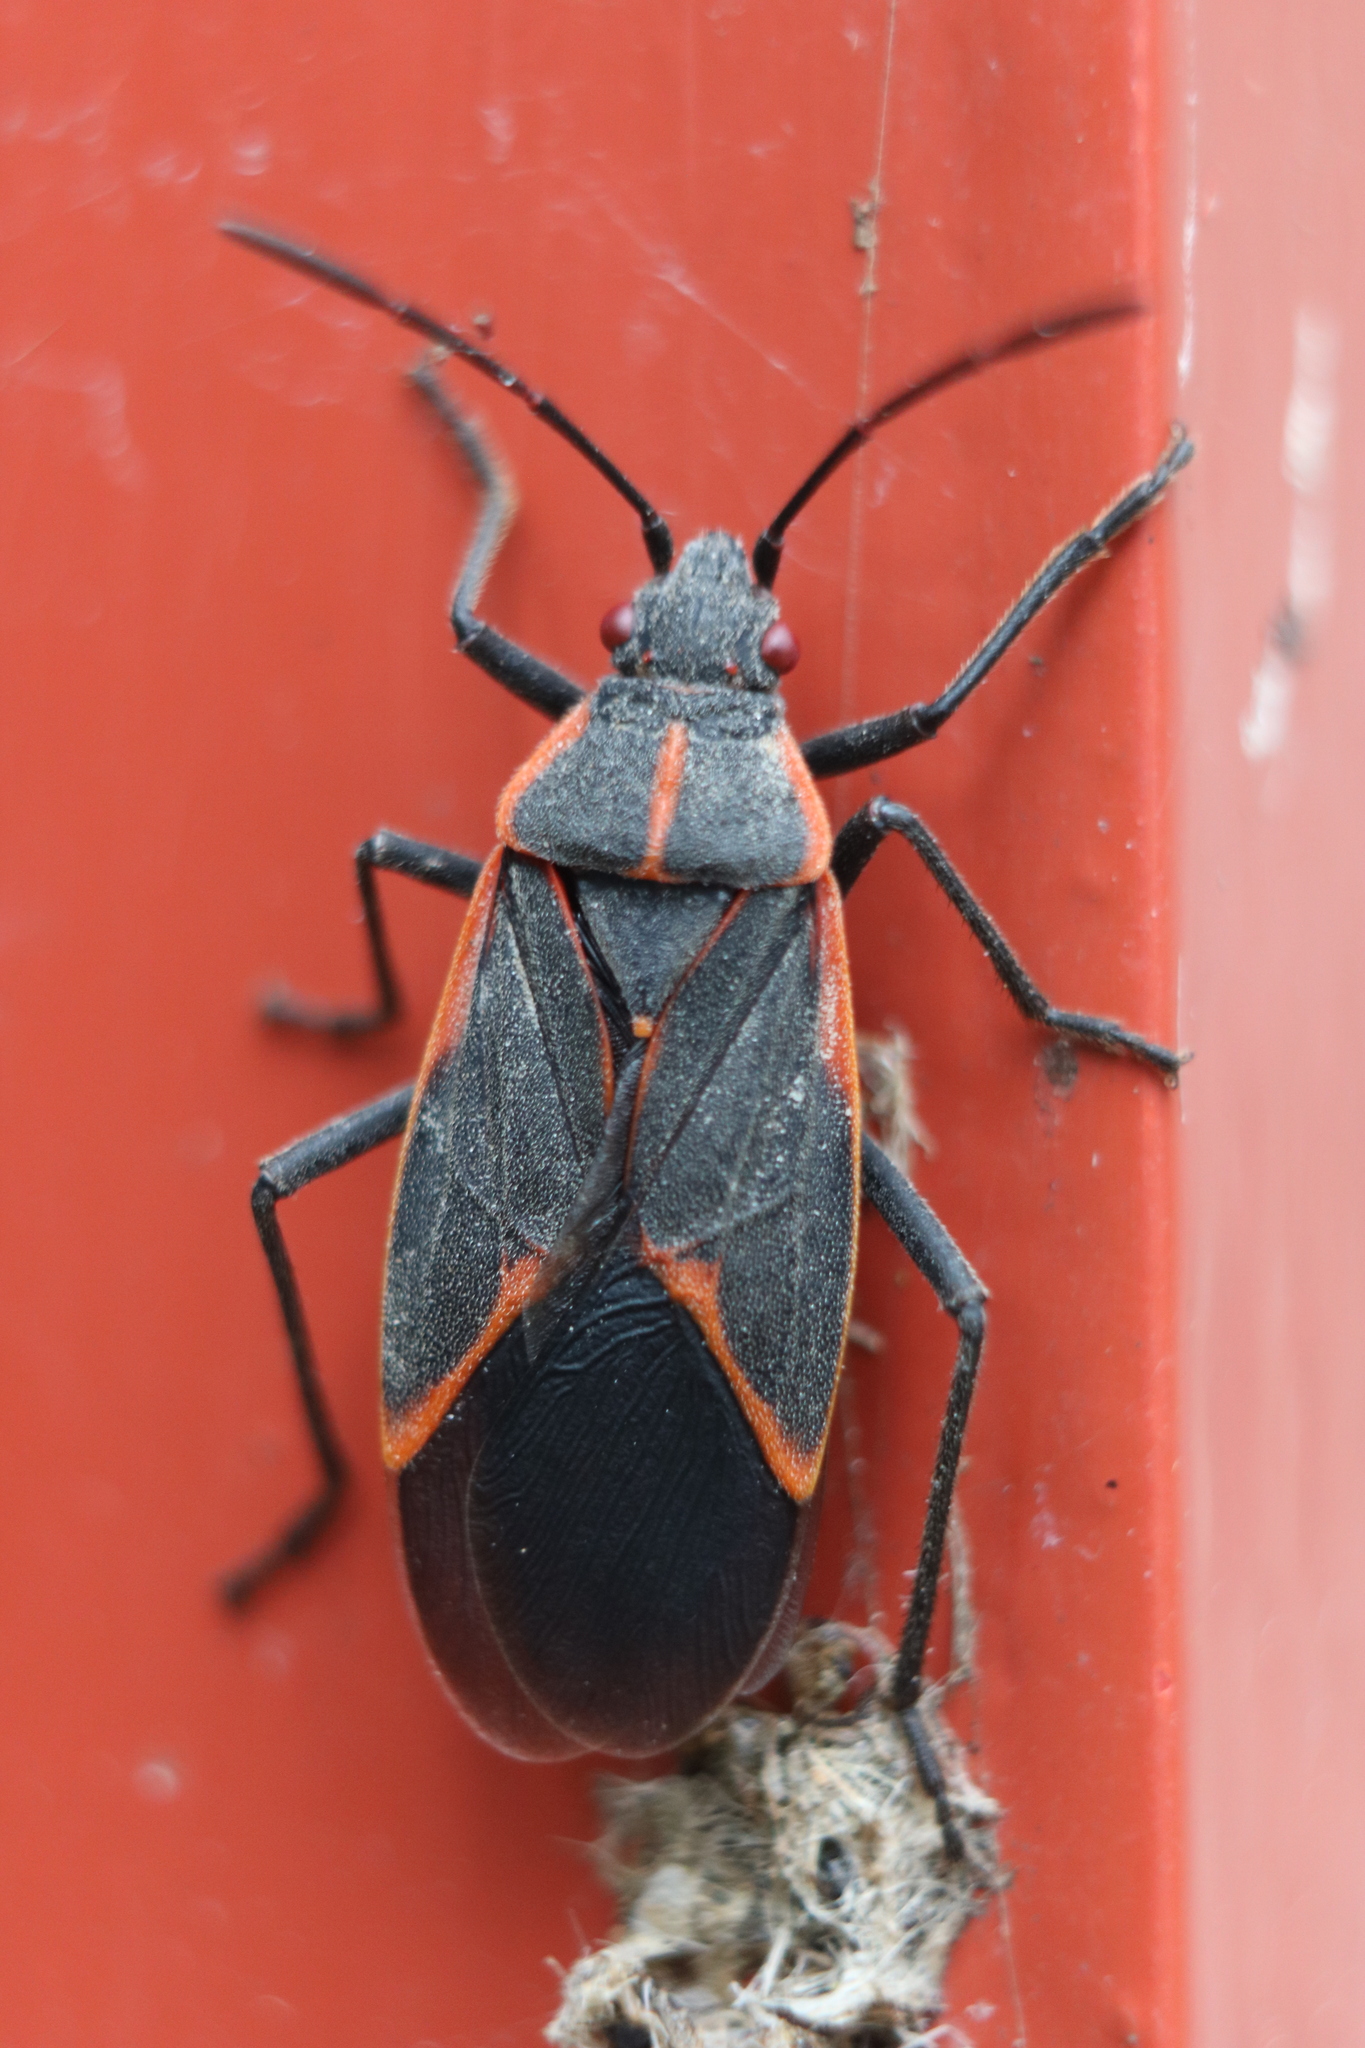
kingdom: Animalia
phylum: Arthropoda
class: Insecta
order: Hemiptera
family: Rhopalidae
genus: Boisea
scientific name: Boisea trivittata
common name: Boxelder bug
